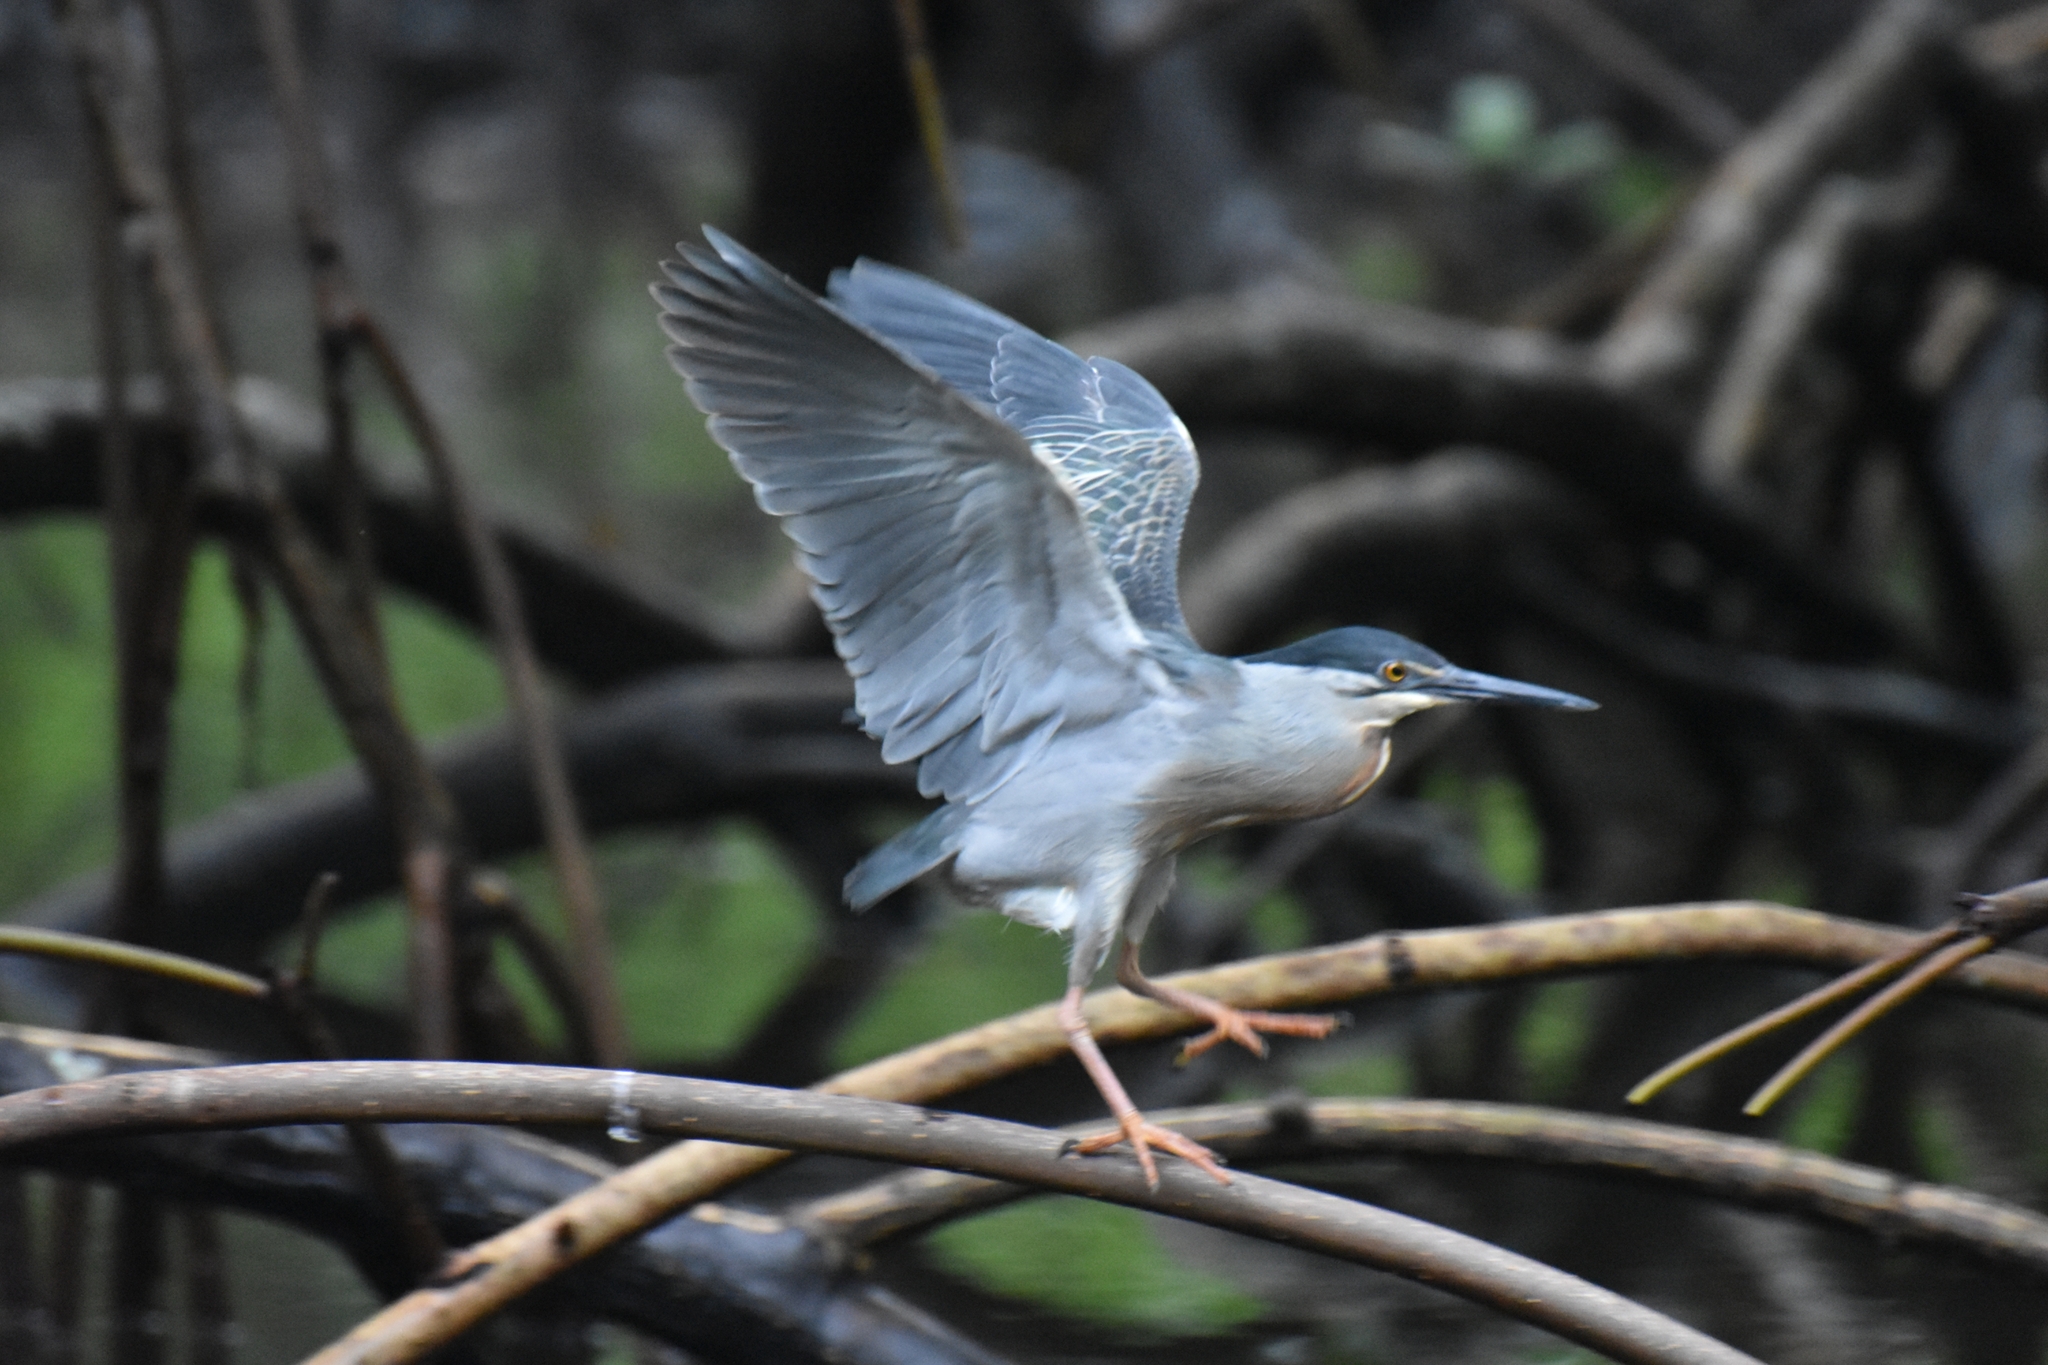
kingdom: Animalia
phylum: Chordata
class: Aves
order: Pelecaniformes
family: Ardeidae
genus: Butorides
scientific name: Butorides striata
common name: Striated heron
